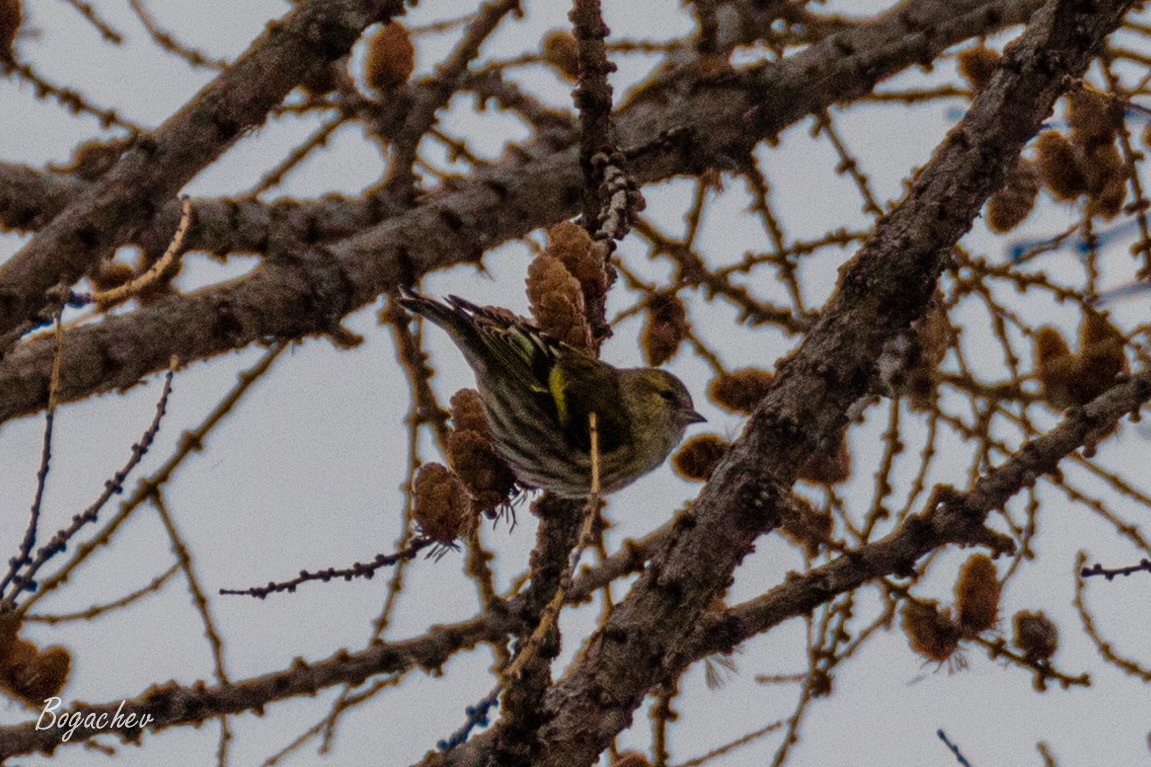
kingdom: Animalia
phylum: Chordata
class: Aves
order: Passeriformes
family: Fringillidae
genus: Spinus
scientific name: Spinus spinus
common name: Eurasian siskin
